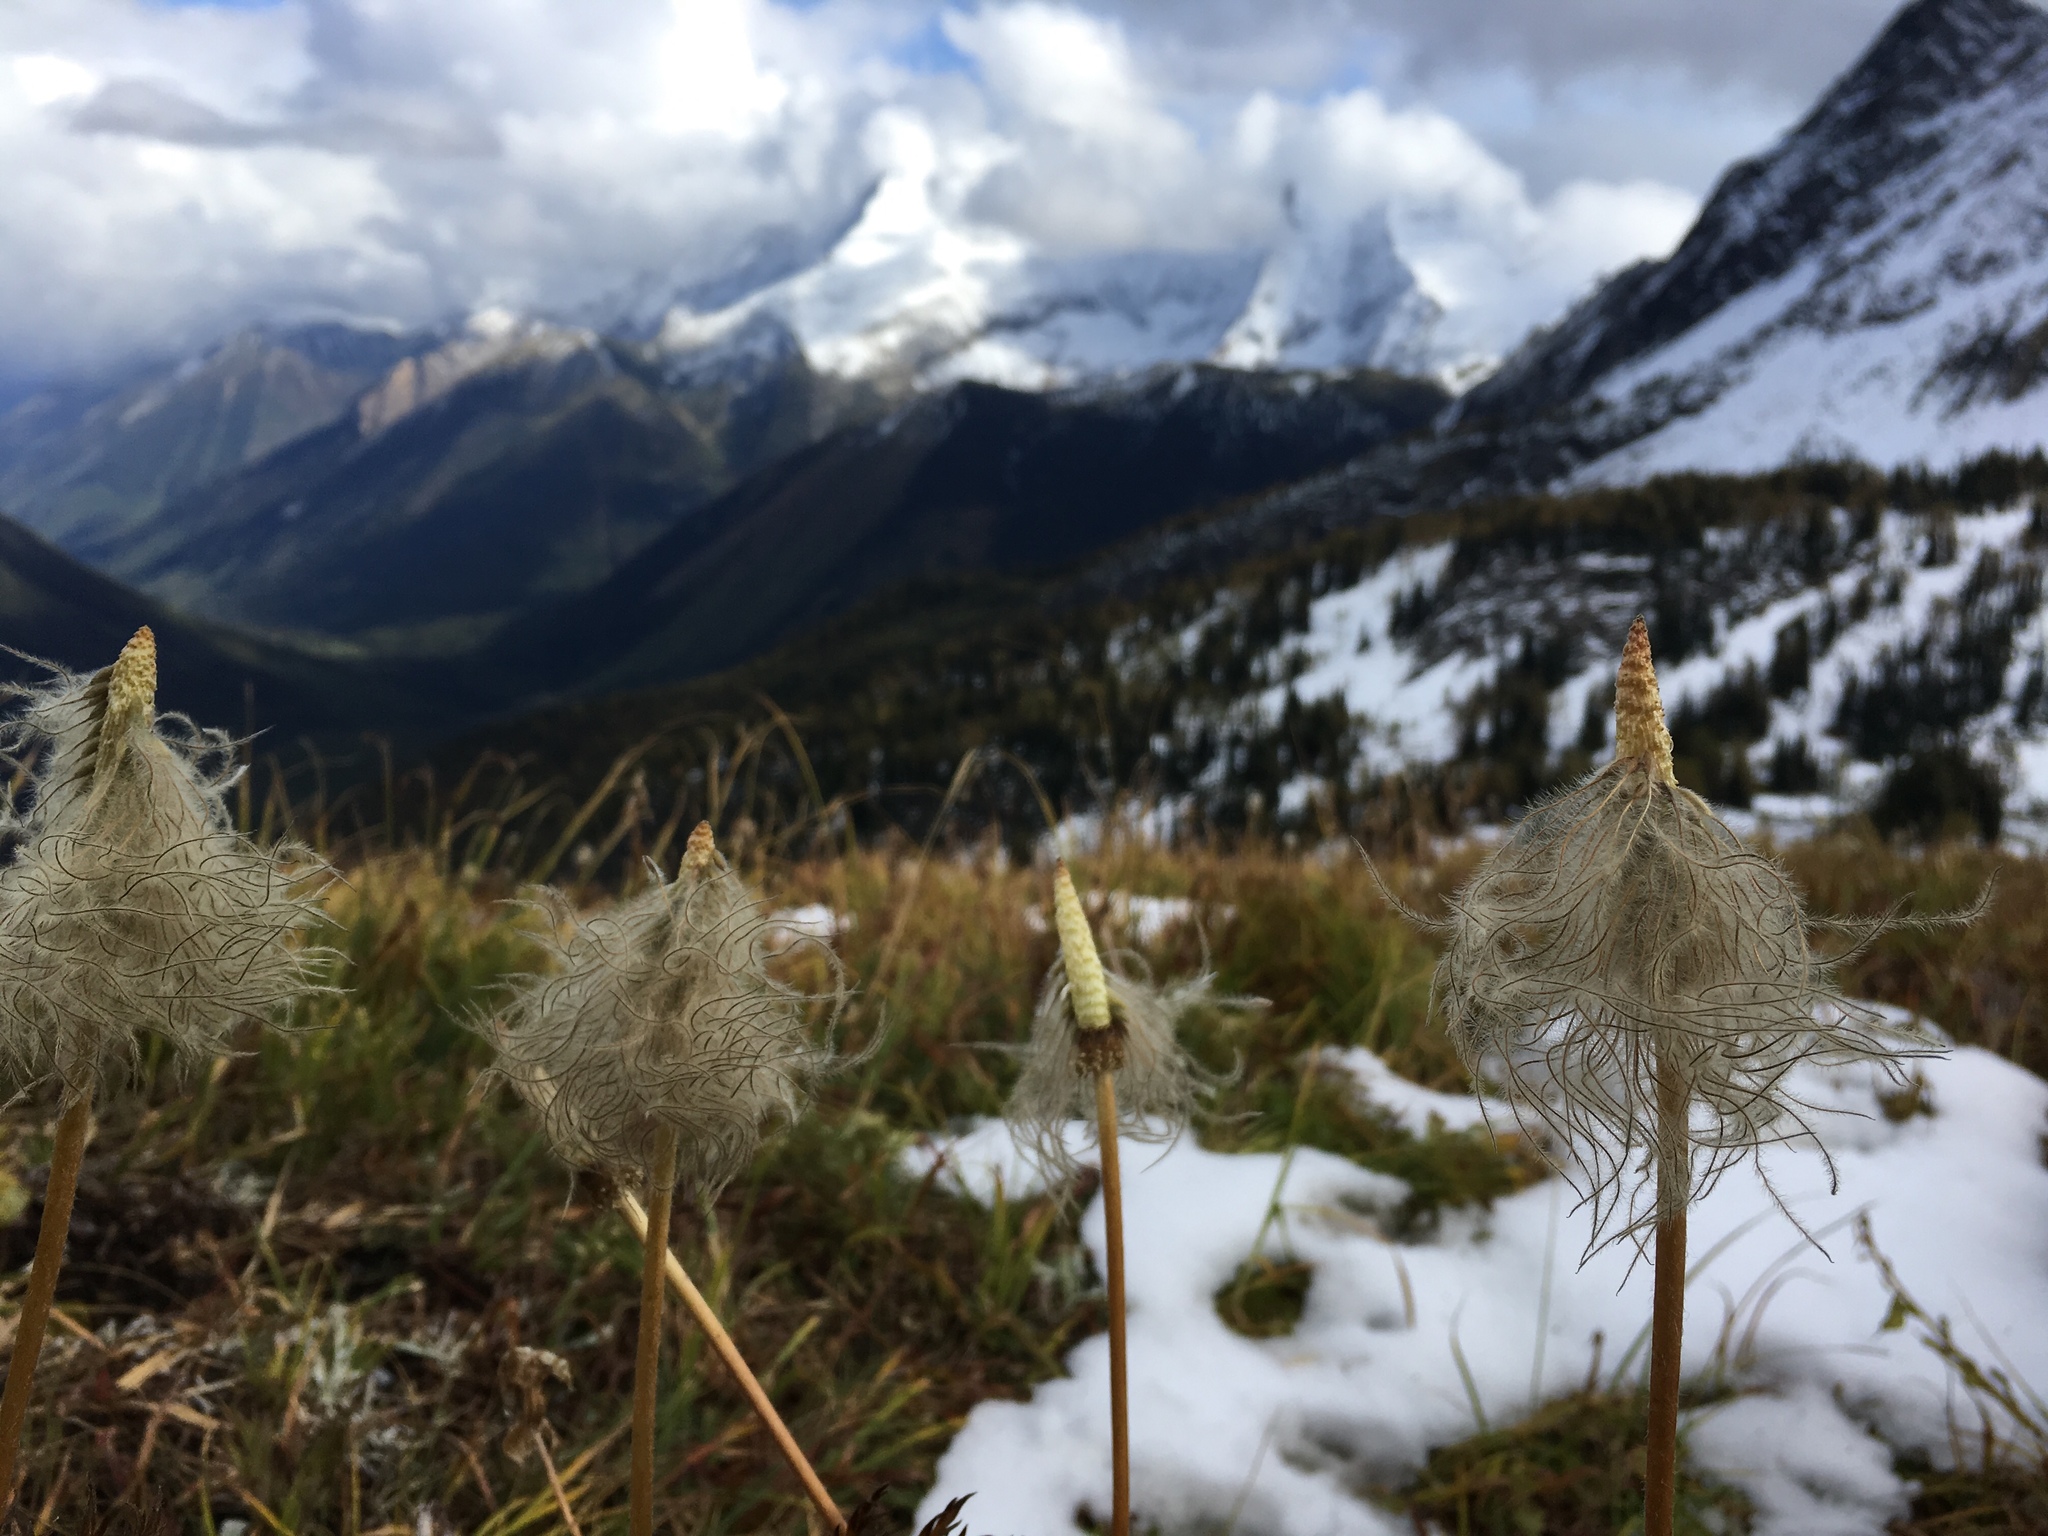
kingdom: Plantae
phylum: Tracheophyta
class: Magnoliopsida
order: Ranunculales
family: Ranunculaceae
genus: Pulsatilla
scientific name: Pulsatilla occidentalis
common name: Mountain pasqueflower
